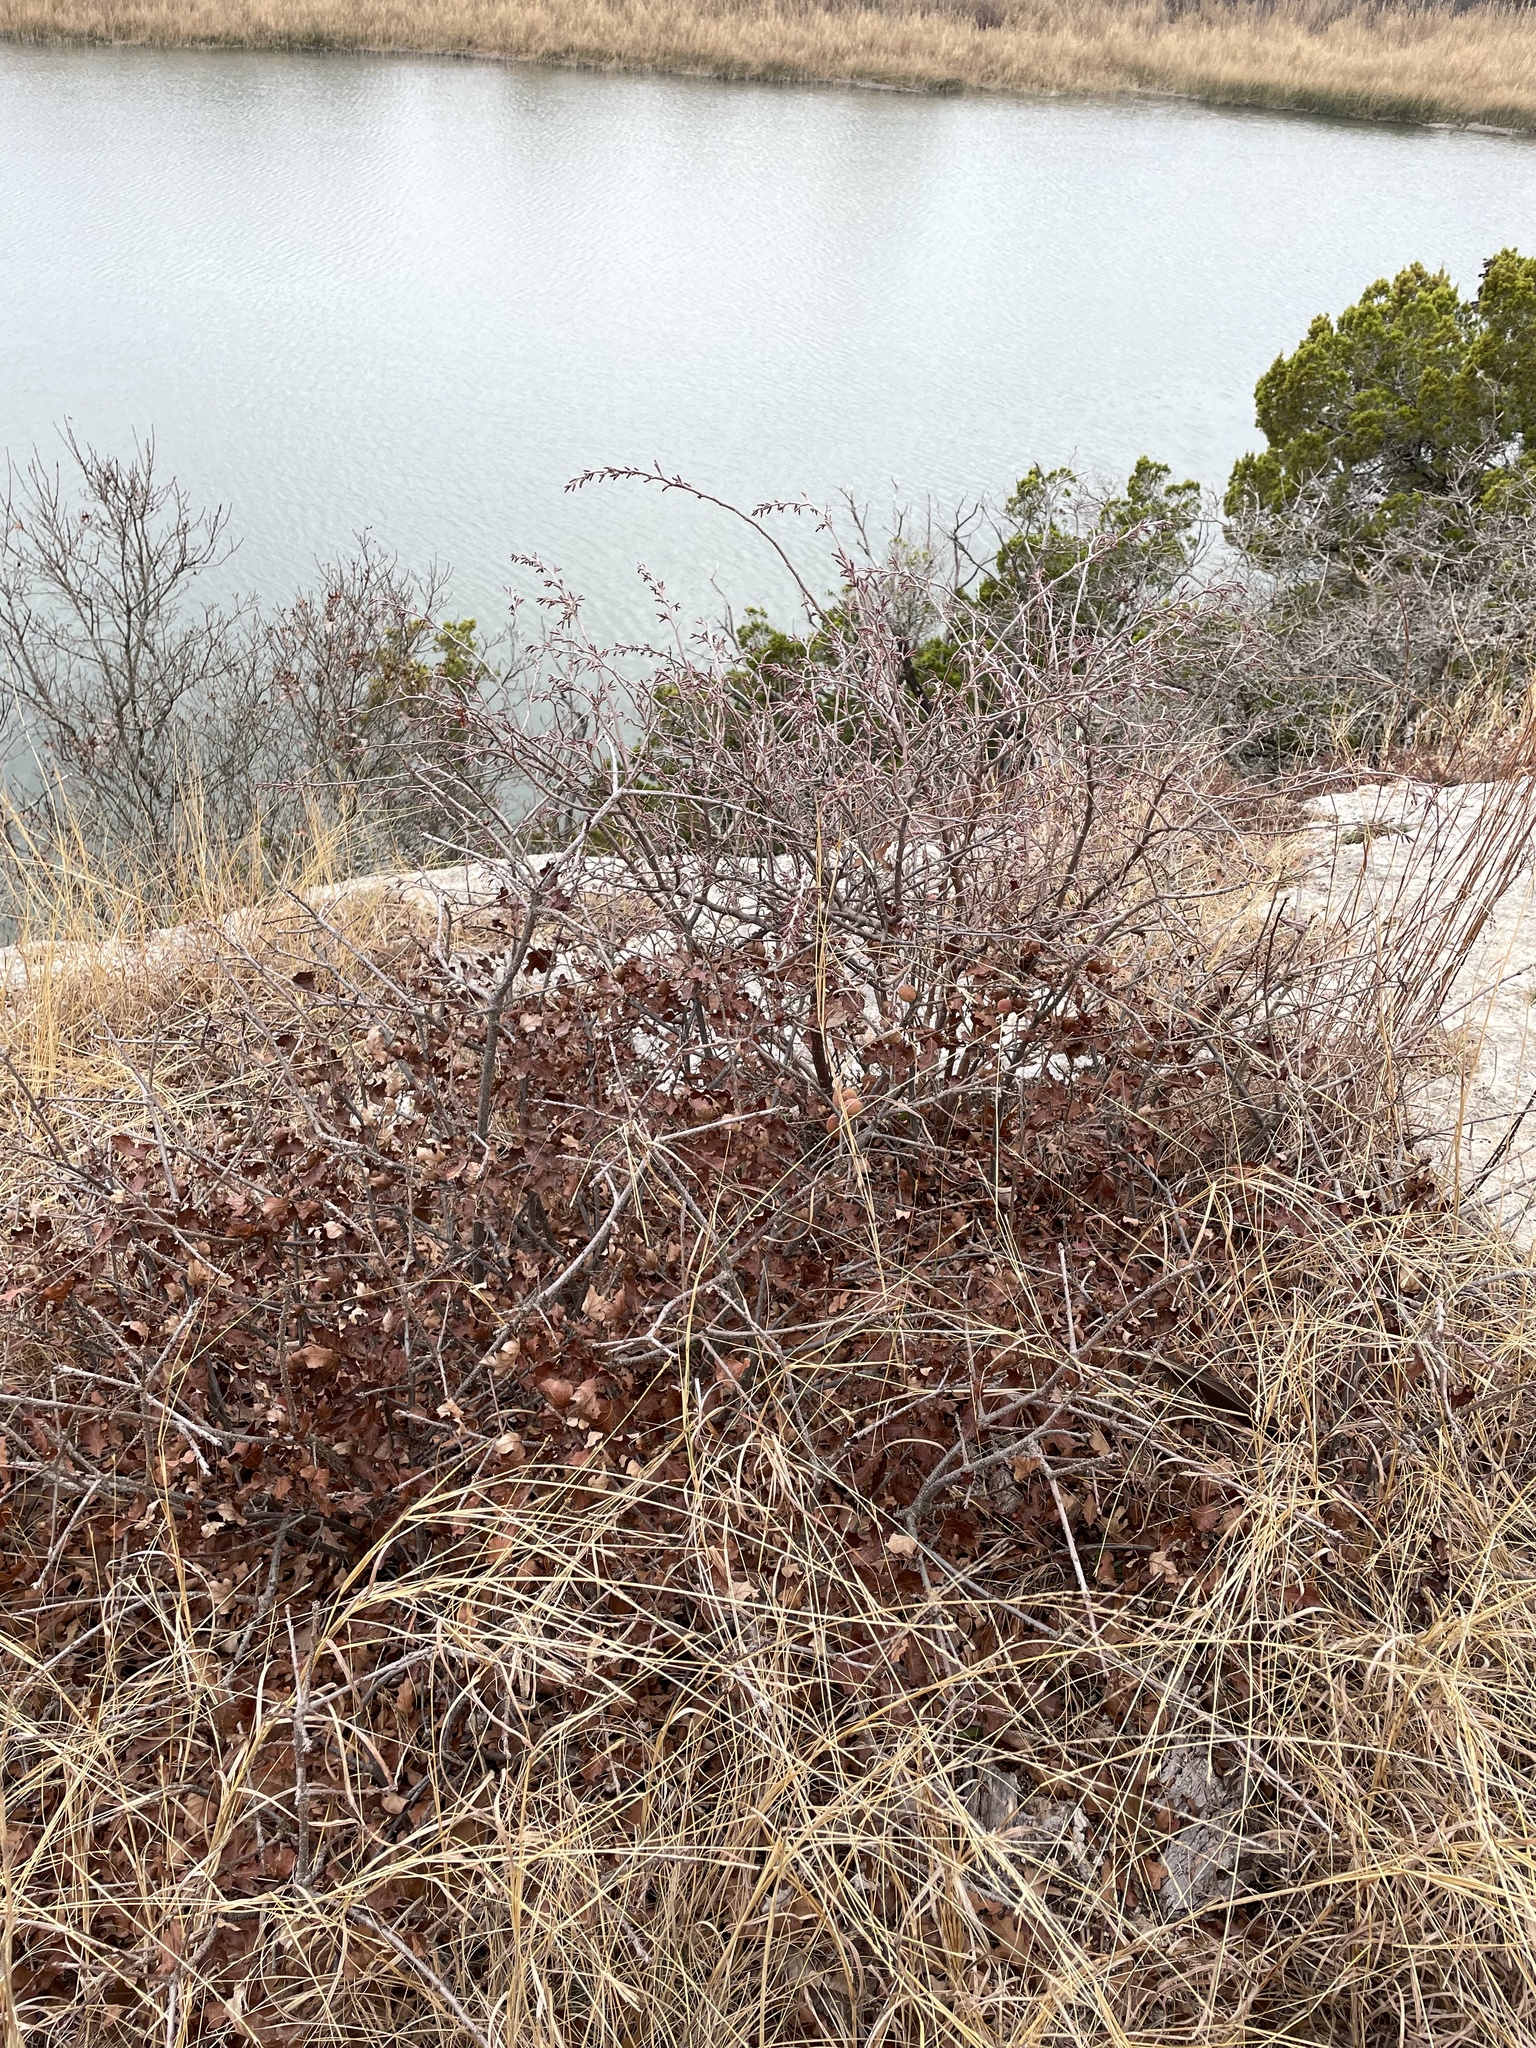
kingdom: Plantae
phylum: Tracheophyta
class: Magnoliopsida
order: Sapindales
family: Anacardiaceae
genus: Rhus
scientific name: Rhus aromatica
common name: Aromatic sumac
